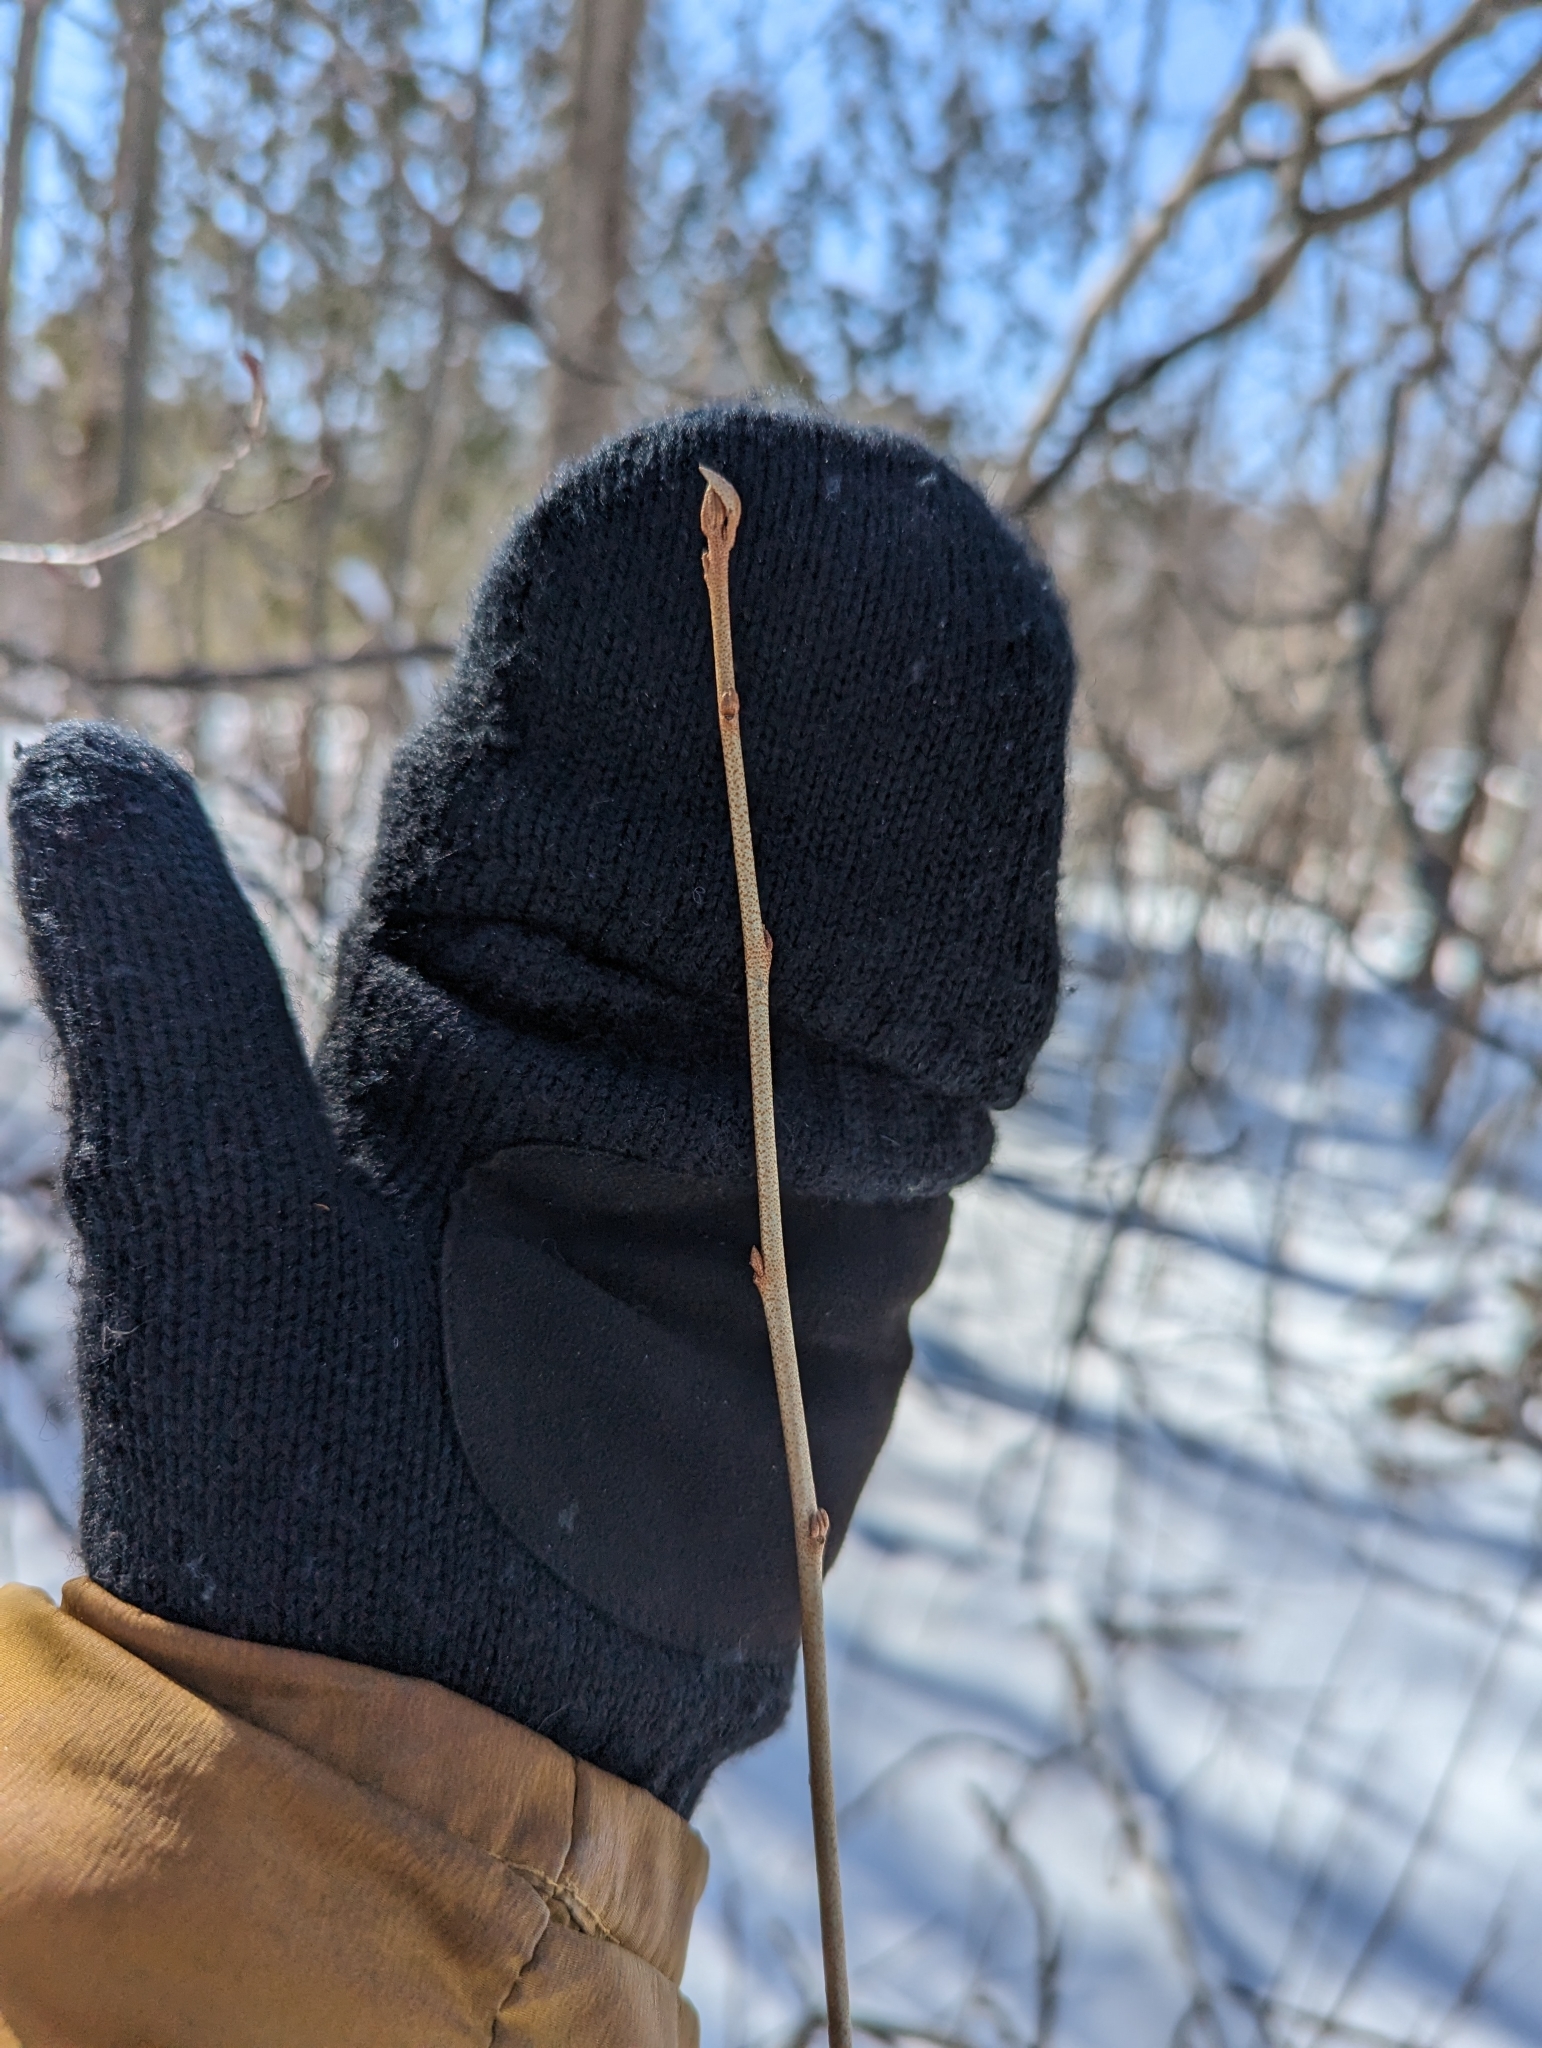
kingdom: Plantae
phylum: Tracheophyta
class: Magnoliopsida
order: Rosales
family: Elaeagnaceae
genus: Elaeagnus
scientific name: Elaeagnus umbellata
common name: Autumn olive
